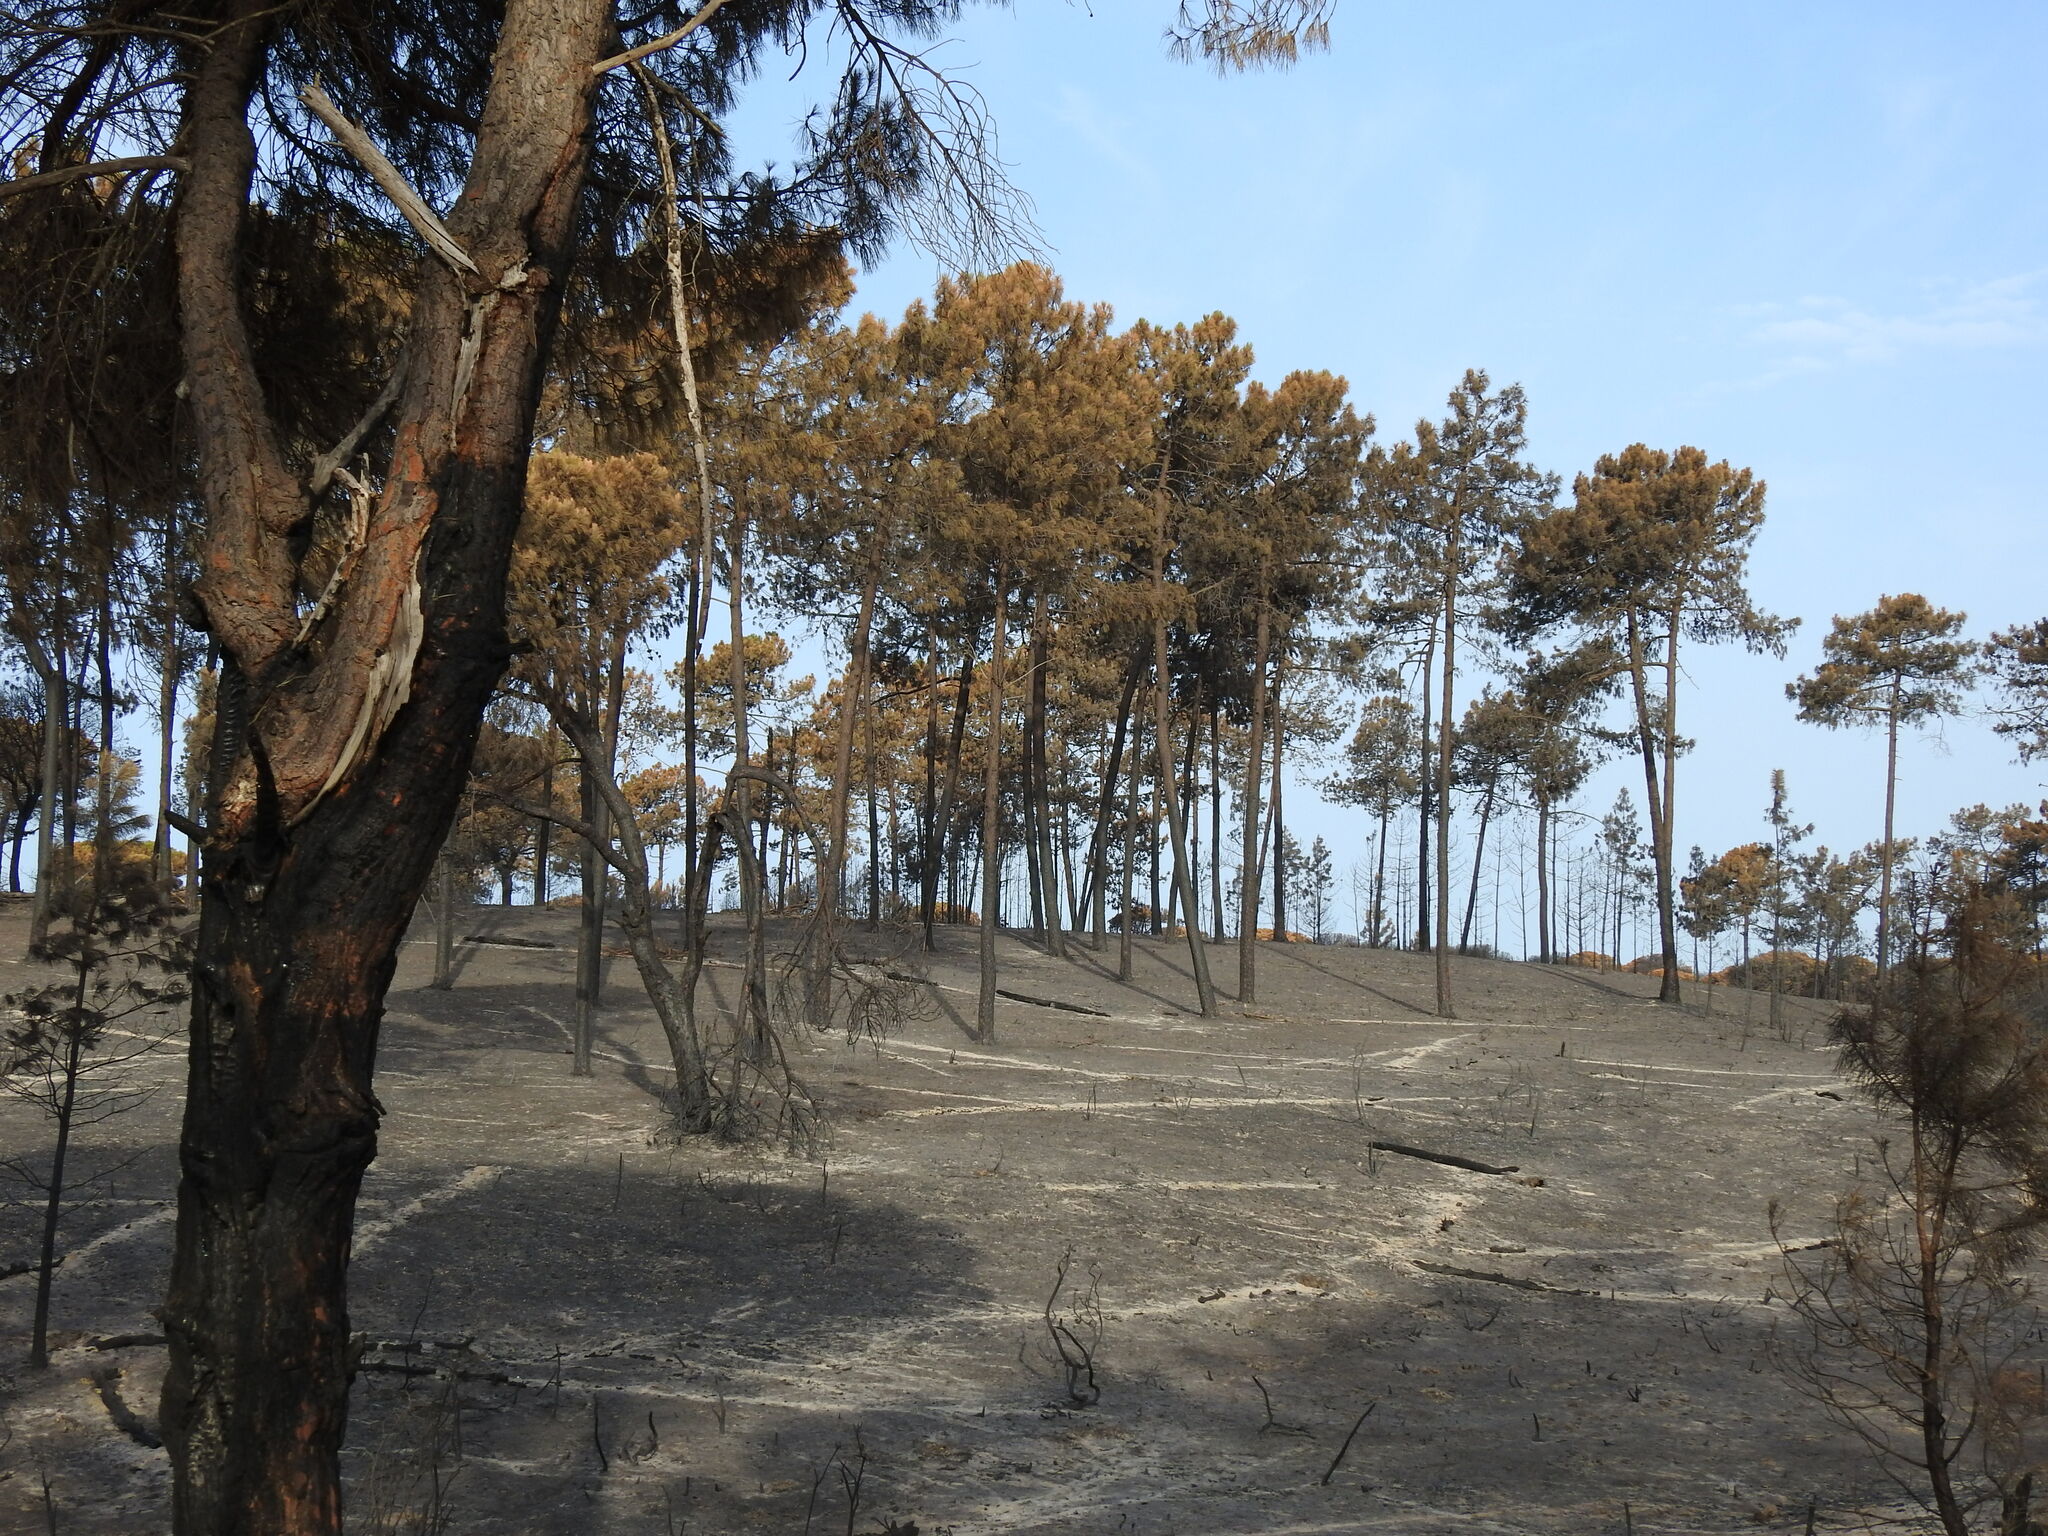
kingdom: Plantae
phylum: Tracheophyta
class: Pinopsida
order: Pinales
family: Pinaceae
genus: Pinus
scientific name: Pinus pinaster
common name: Maritime pine
